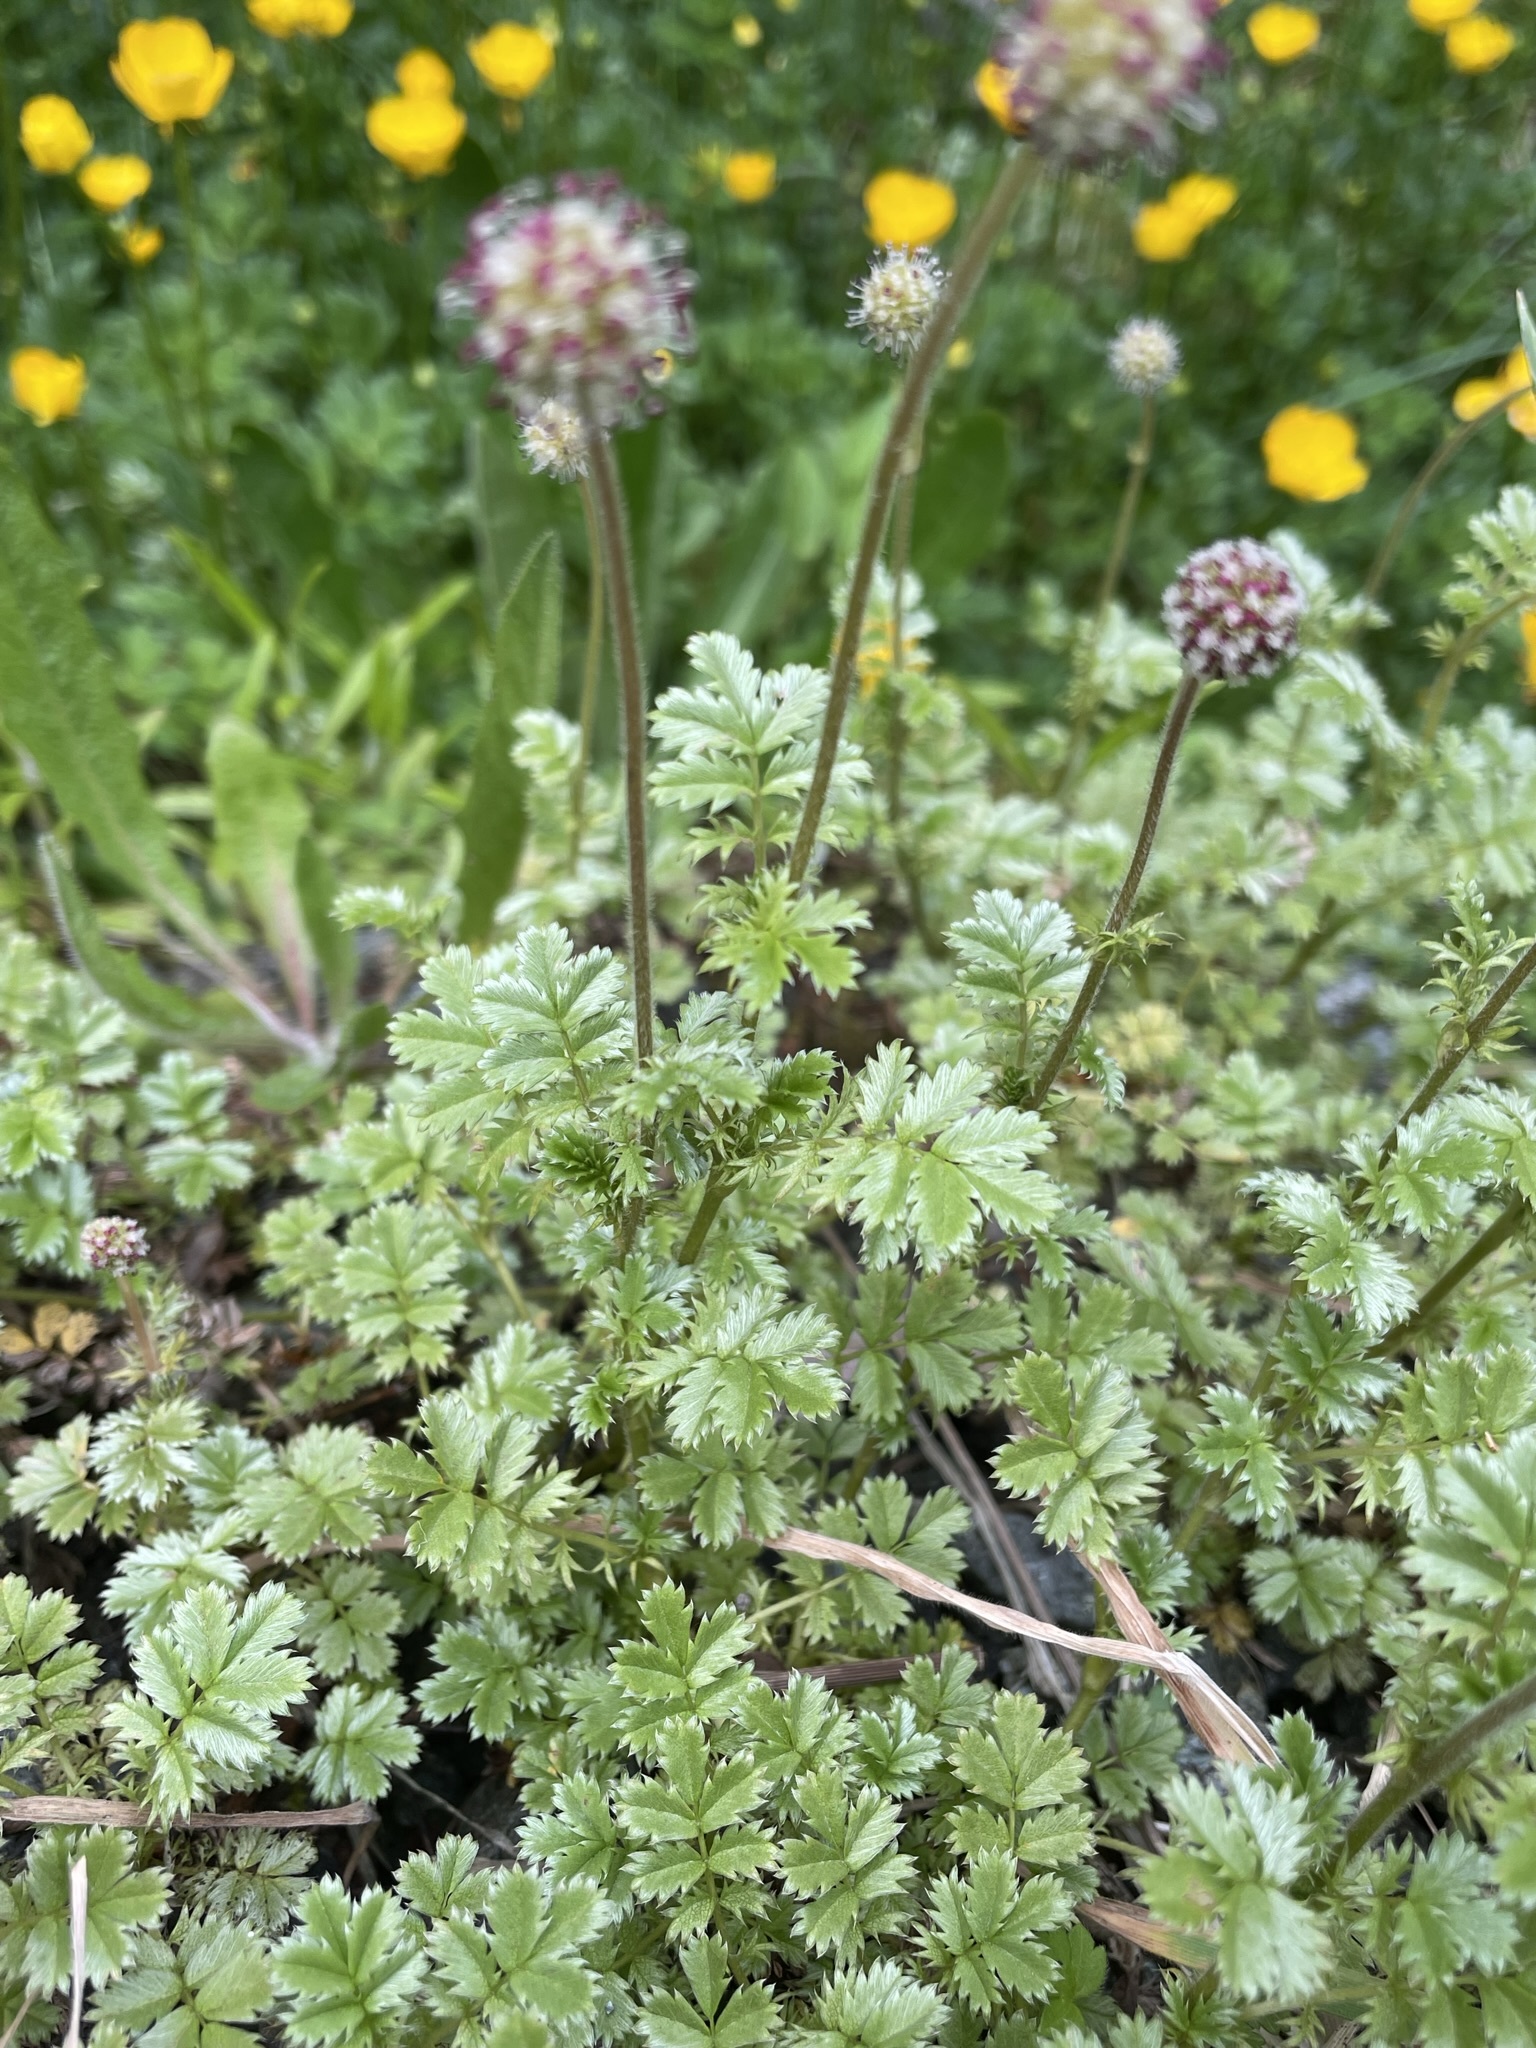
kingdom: Plantae
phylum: Tracheophyta
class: Magnoliopsida
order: Rosales
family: Rosaceae
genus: Acaena
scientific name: Acaena anserinifolia
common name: Bronze pirri-pirri-bur
